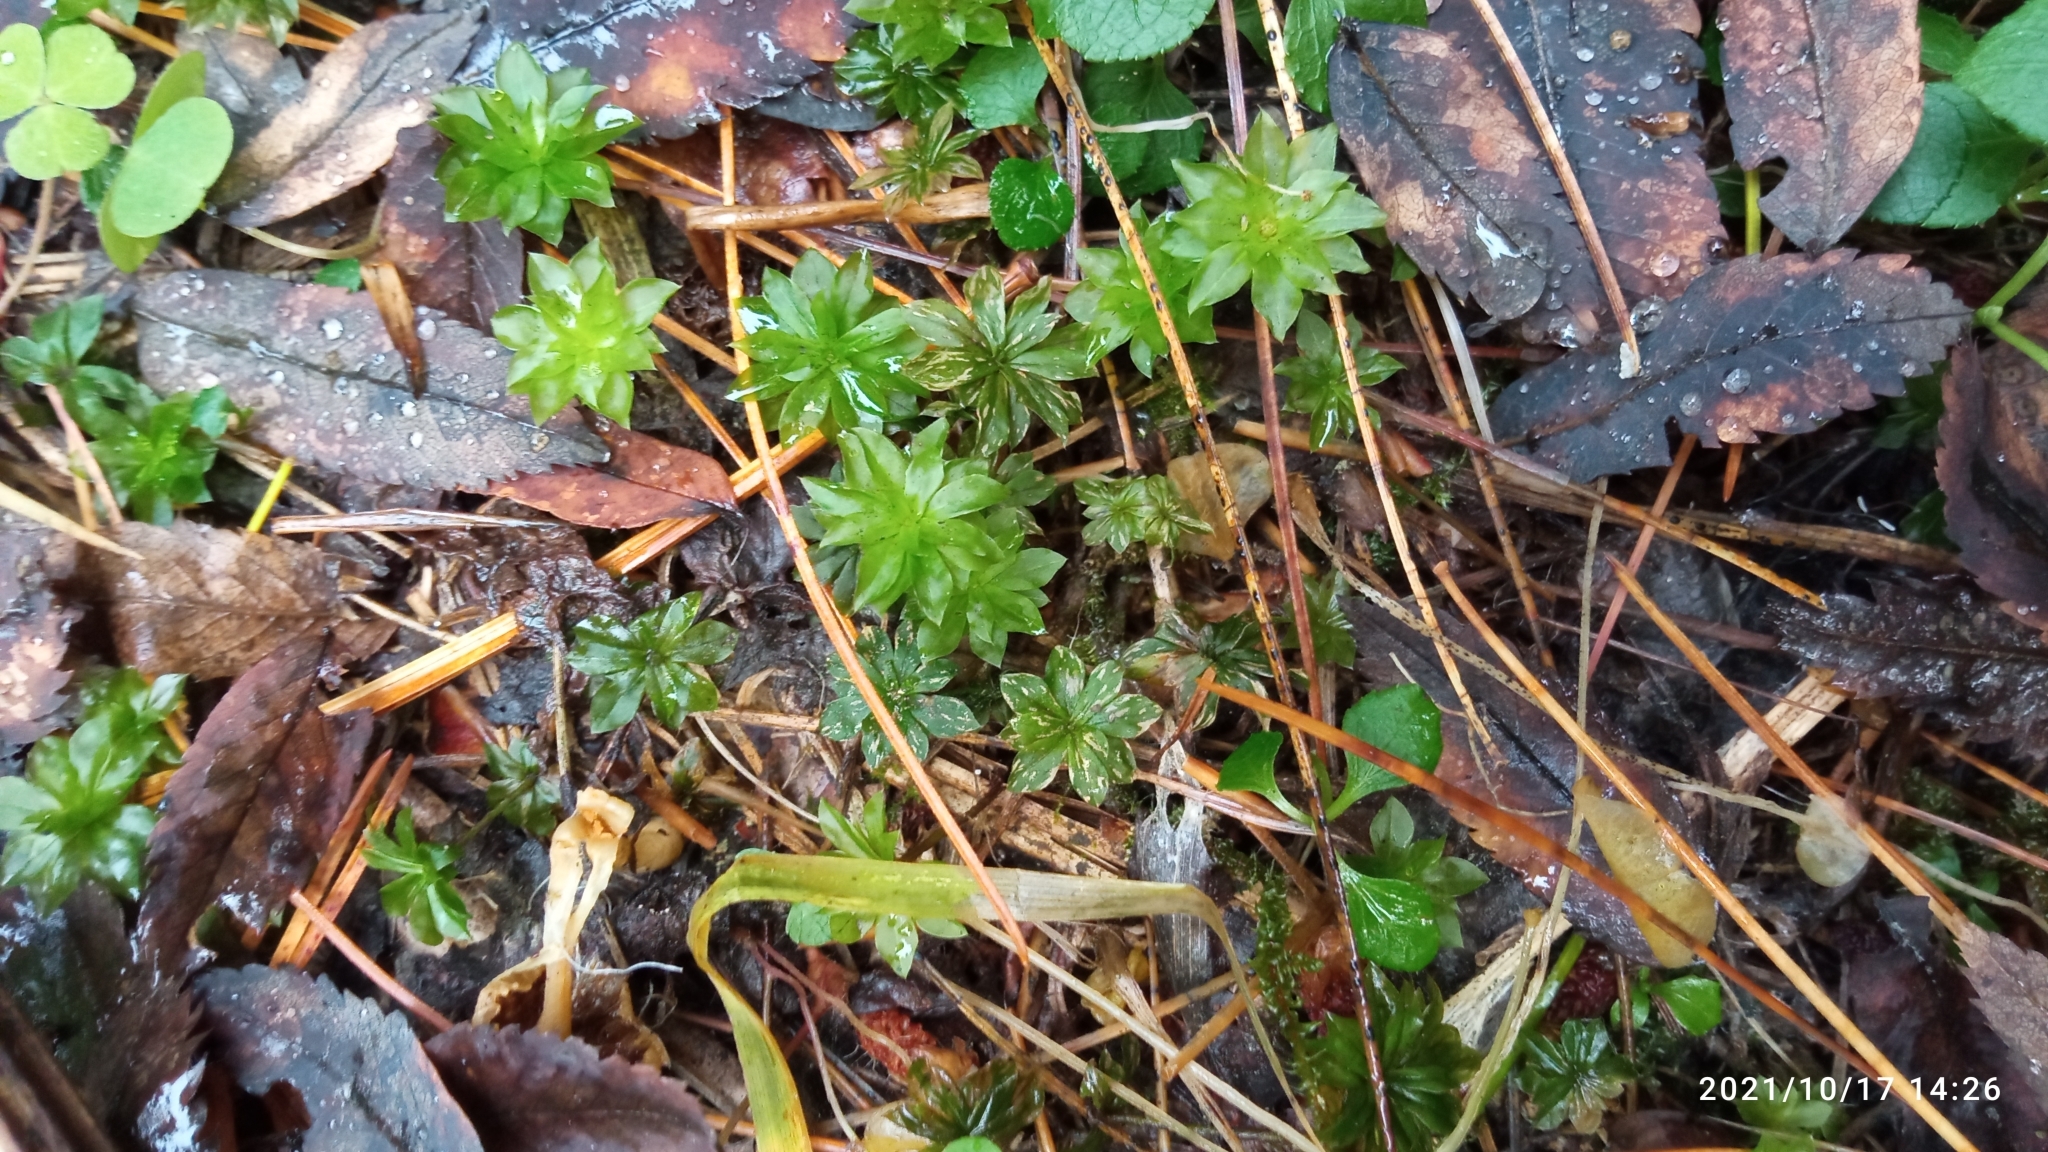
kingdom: Plantae
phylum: Bryophyta
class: Bryopsida
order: Bryales
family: Bryaceae
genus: Rhodobryum
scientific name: Rhodobryum roseum
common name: Rose-moss
